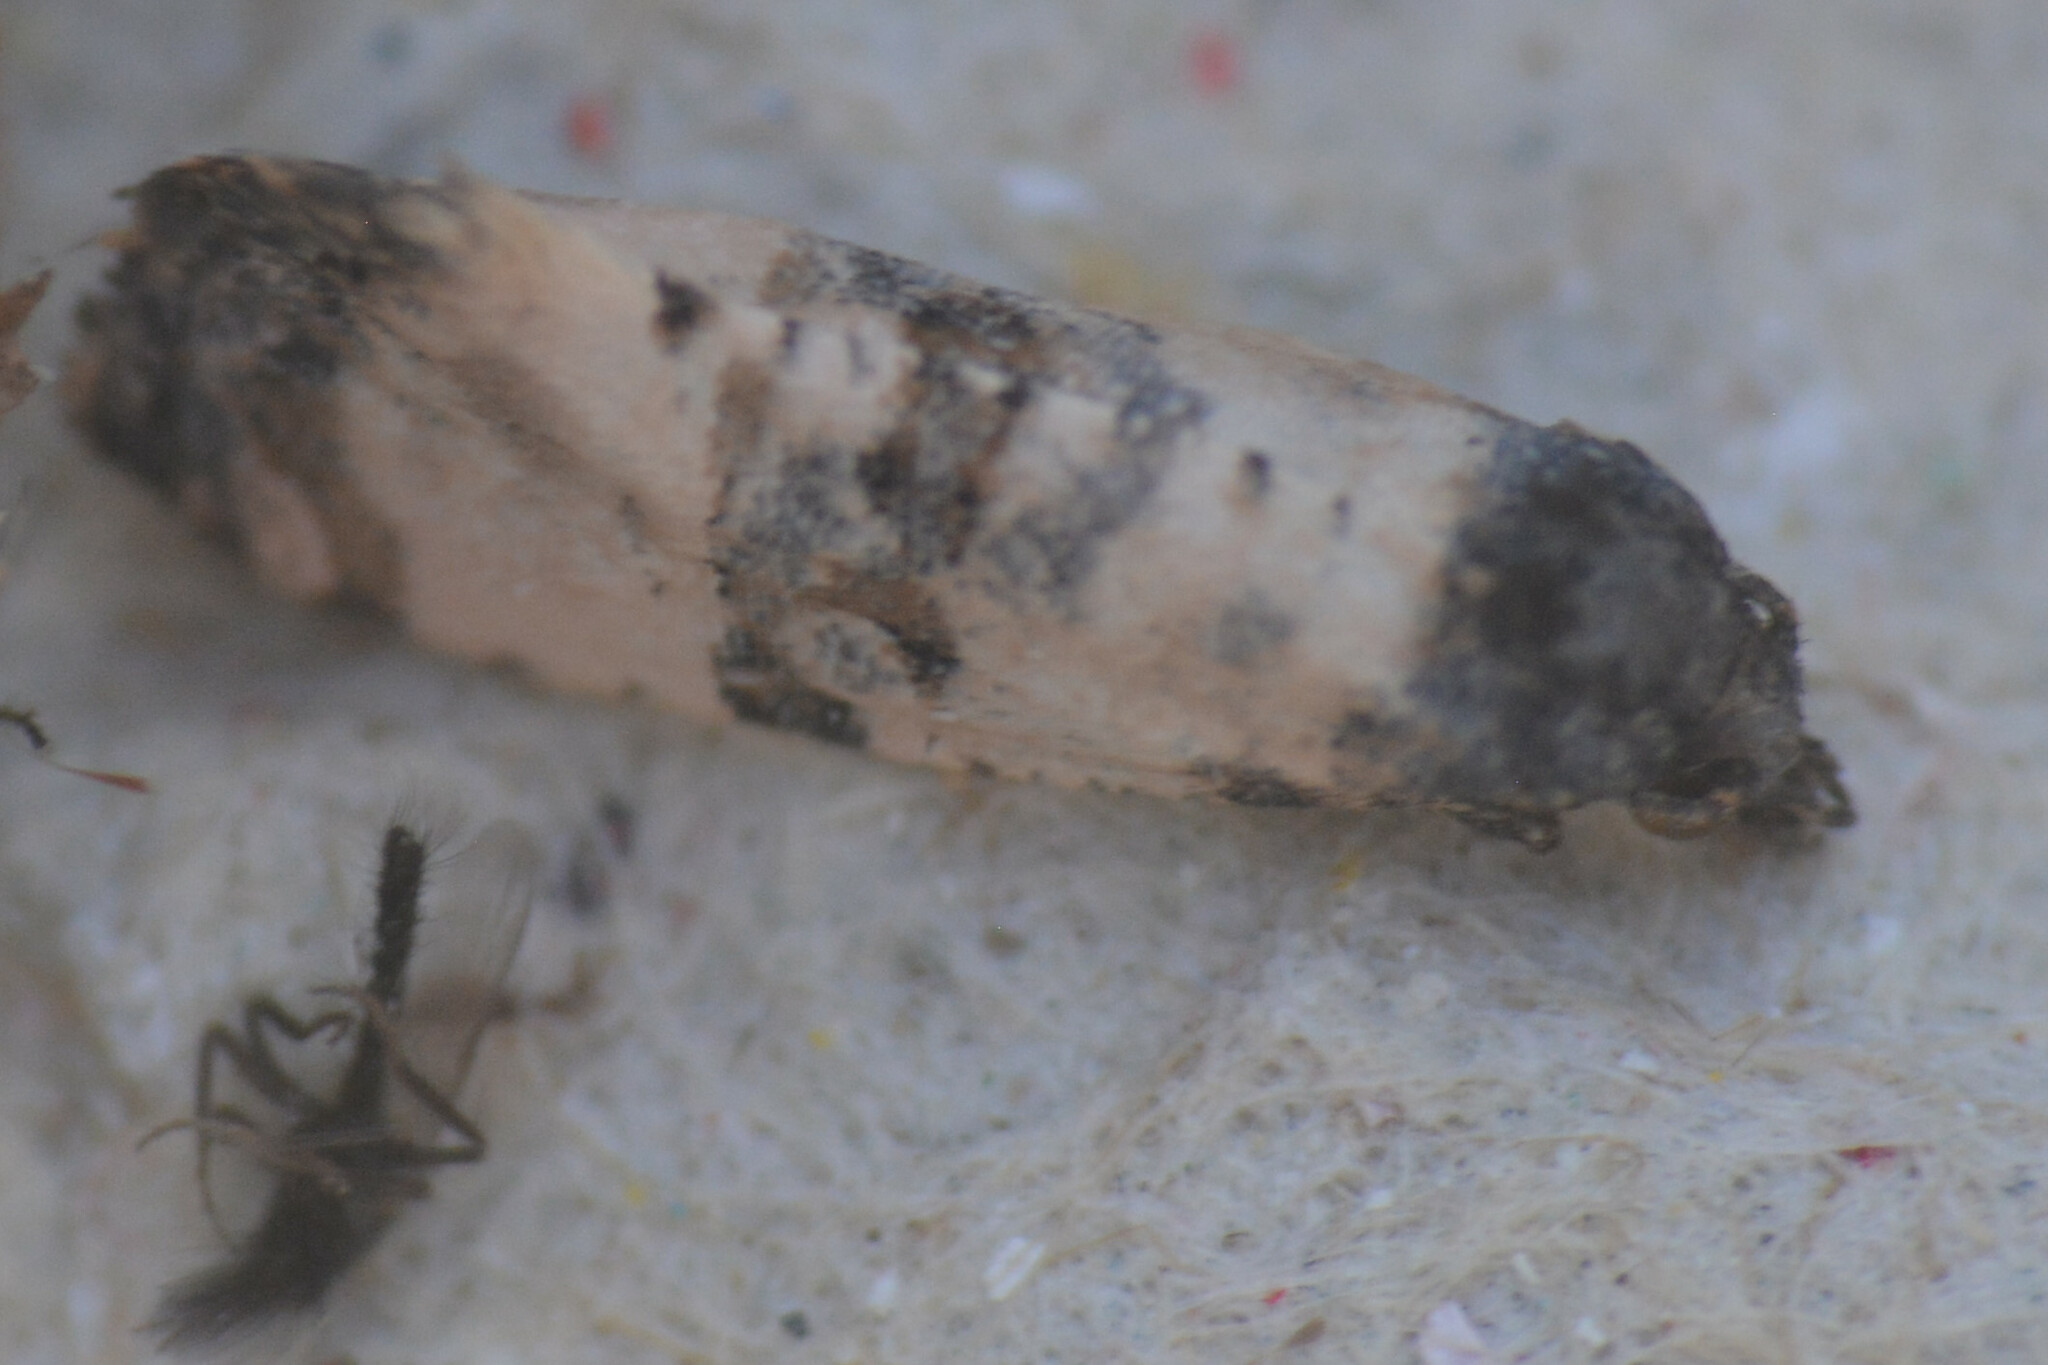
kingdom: Animalia
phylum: Arthropoda
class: Insecta
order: Lepidoptera
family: Tortricidae
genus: Cochylis
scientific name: Cochylis atricapitana
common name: Tortricid moth
